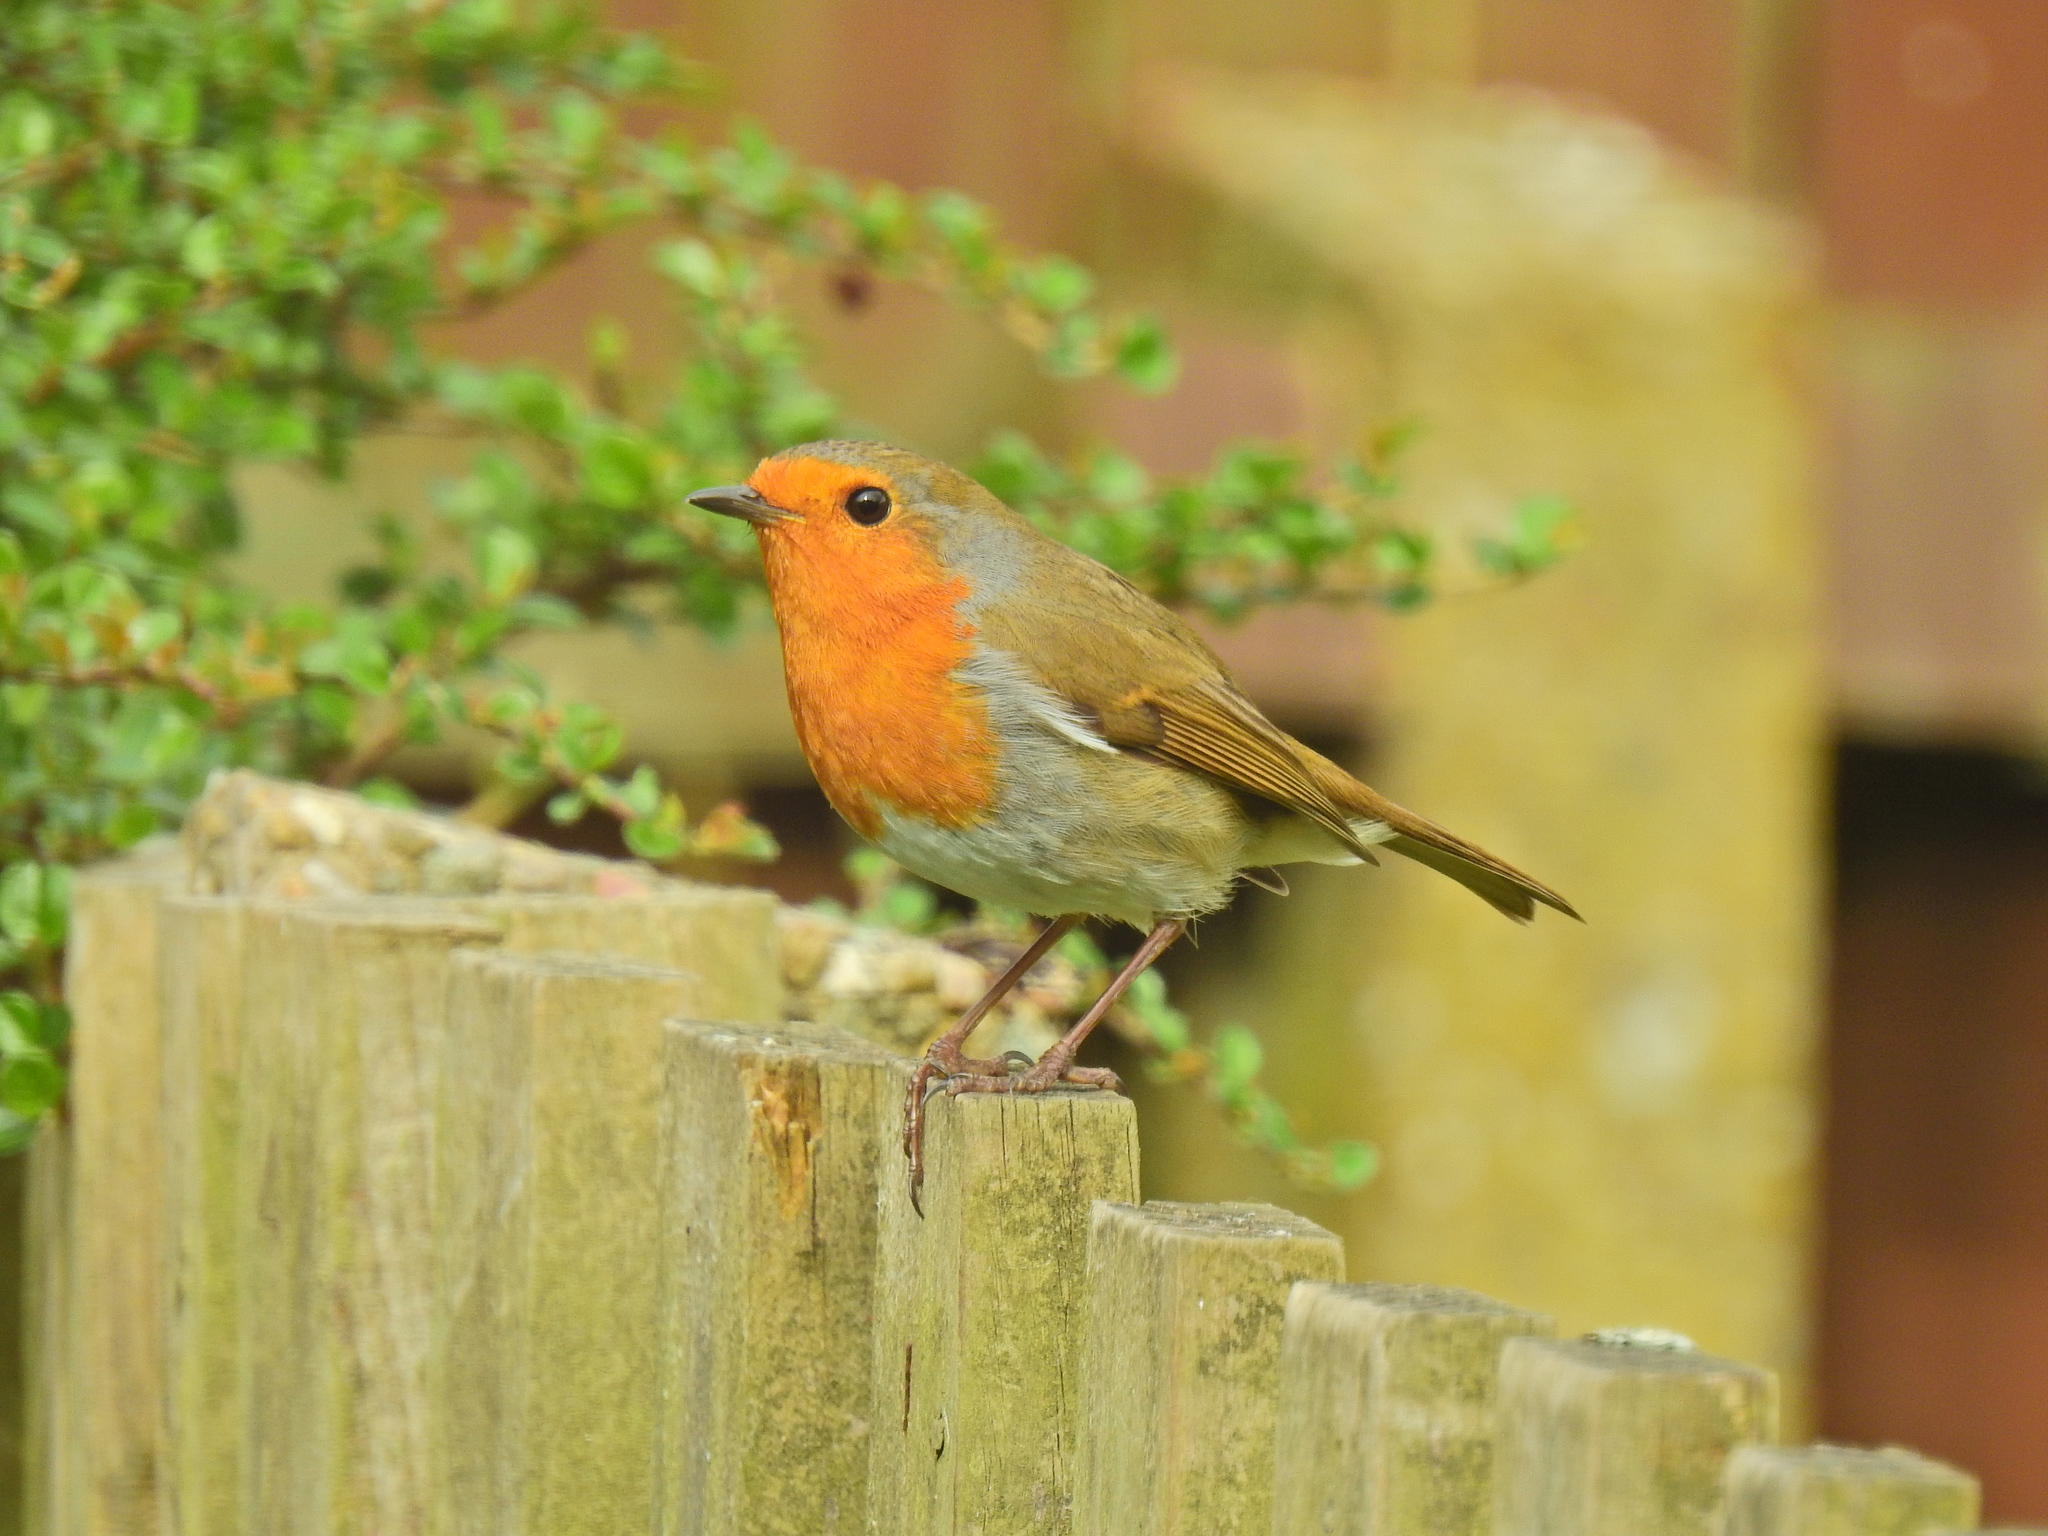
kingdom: Animalia
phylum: Chordata
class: Aves
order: Passeriformes
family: Muscicapidae
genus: Erithacus
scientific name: Erithacus rubecula
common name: European robin
